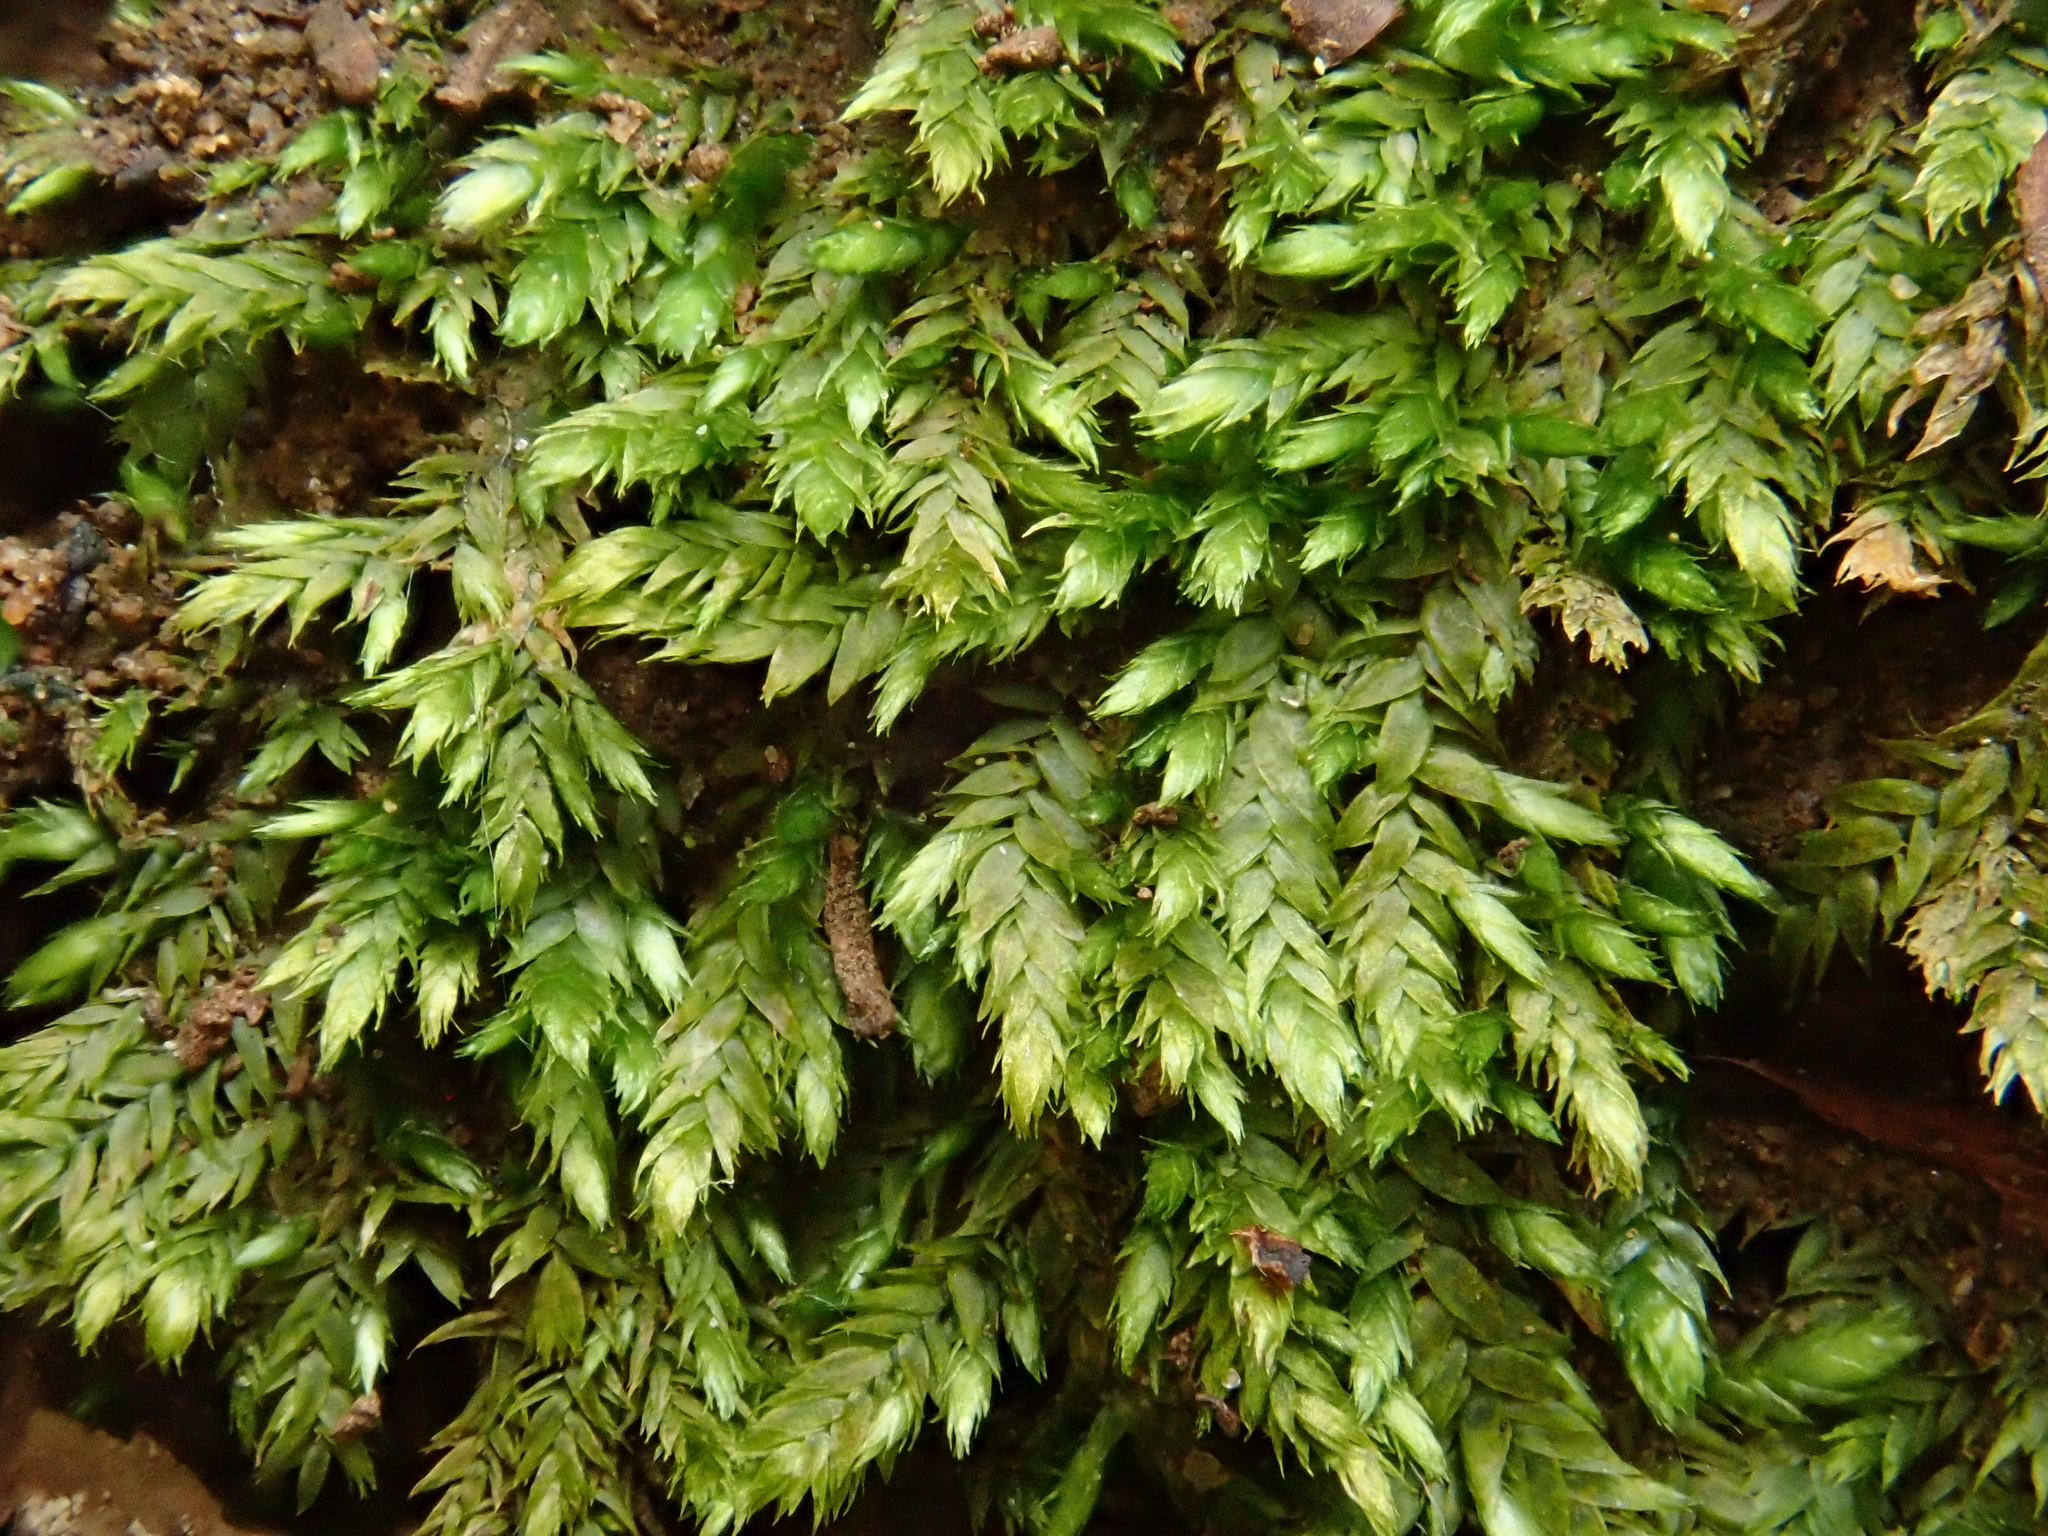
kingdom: Plantae
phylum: Bryophyta
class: Bryopsida
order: Hypnales
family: Taxiphyllaceae
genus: Taxiphyllum
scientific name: Taxiphyllum wissgrillii
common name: Depressed feather-moss
